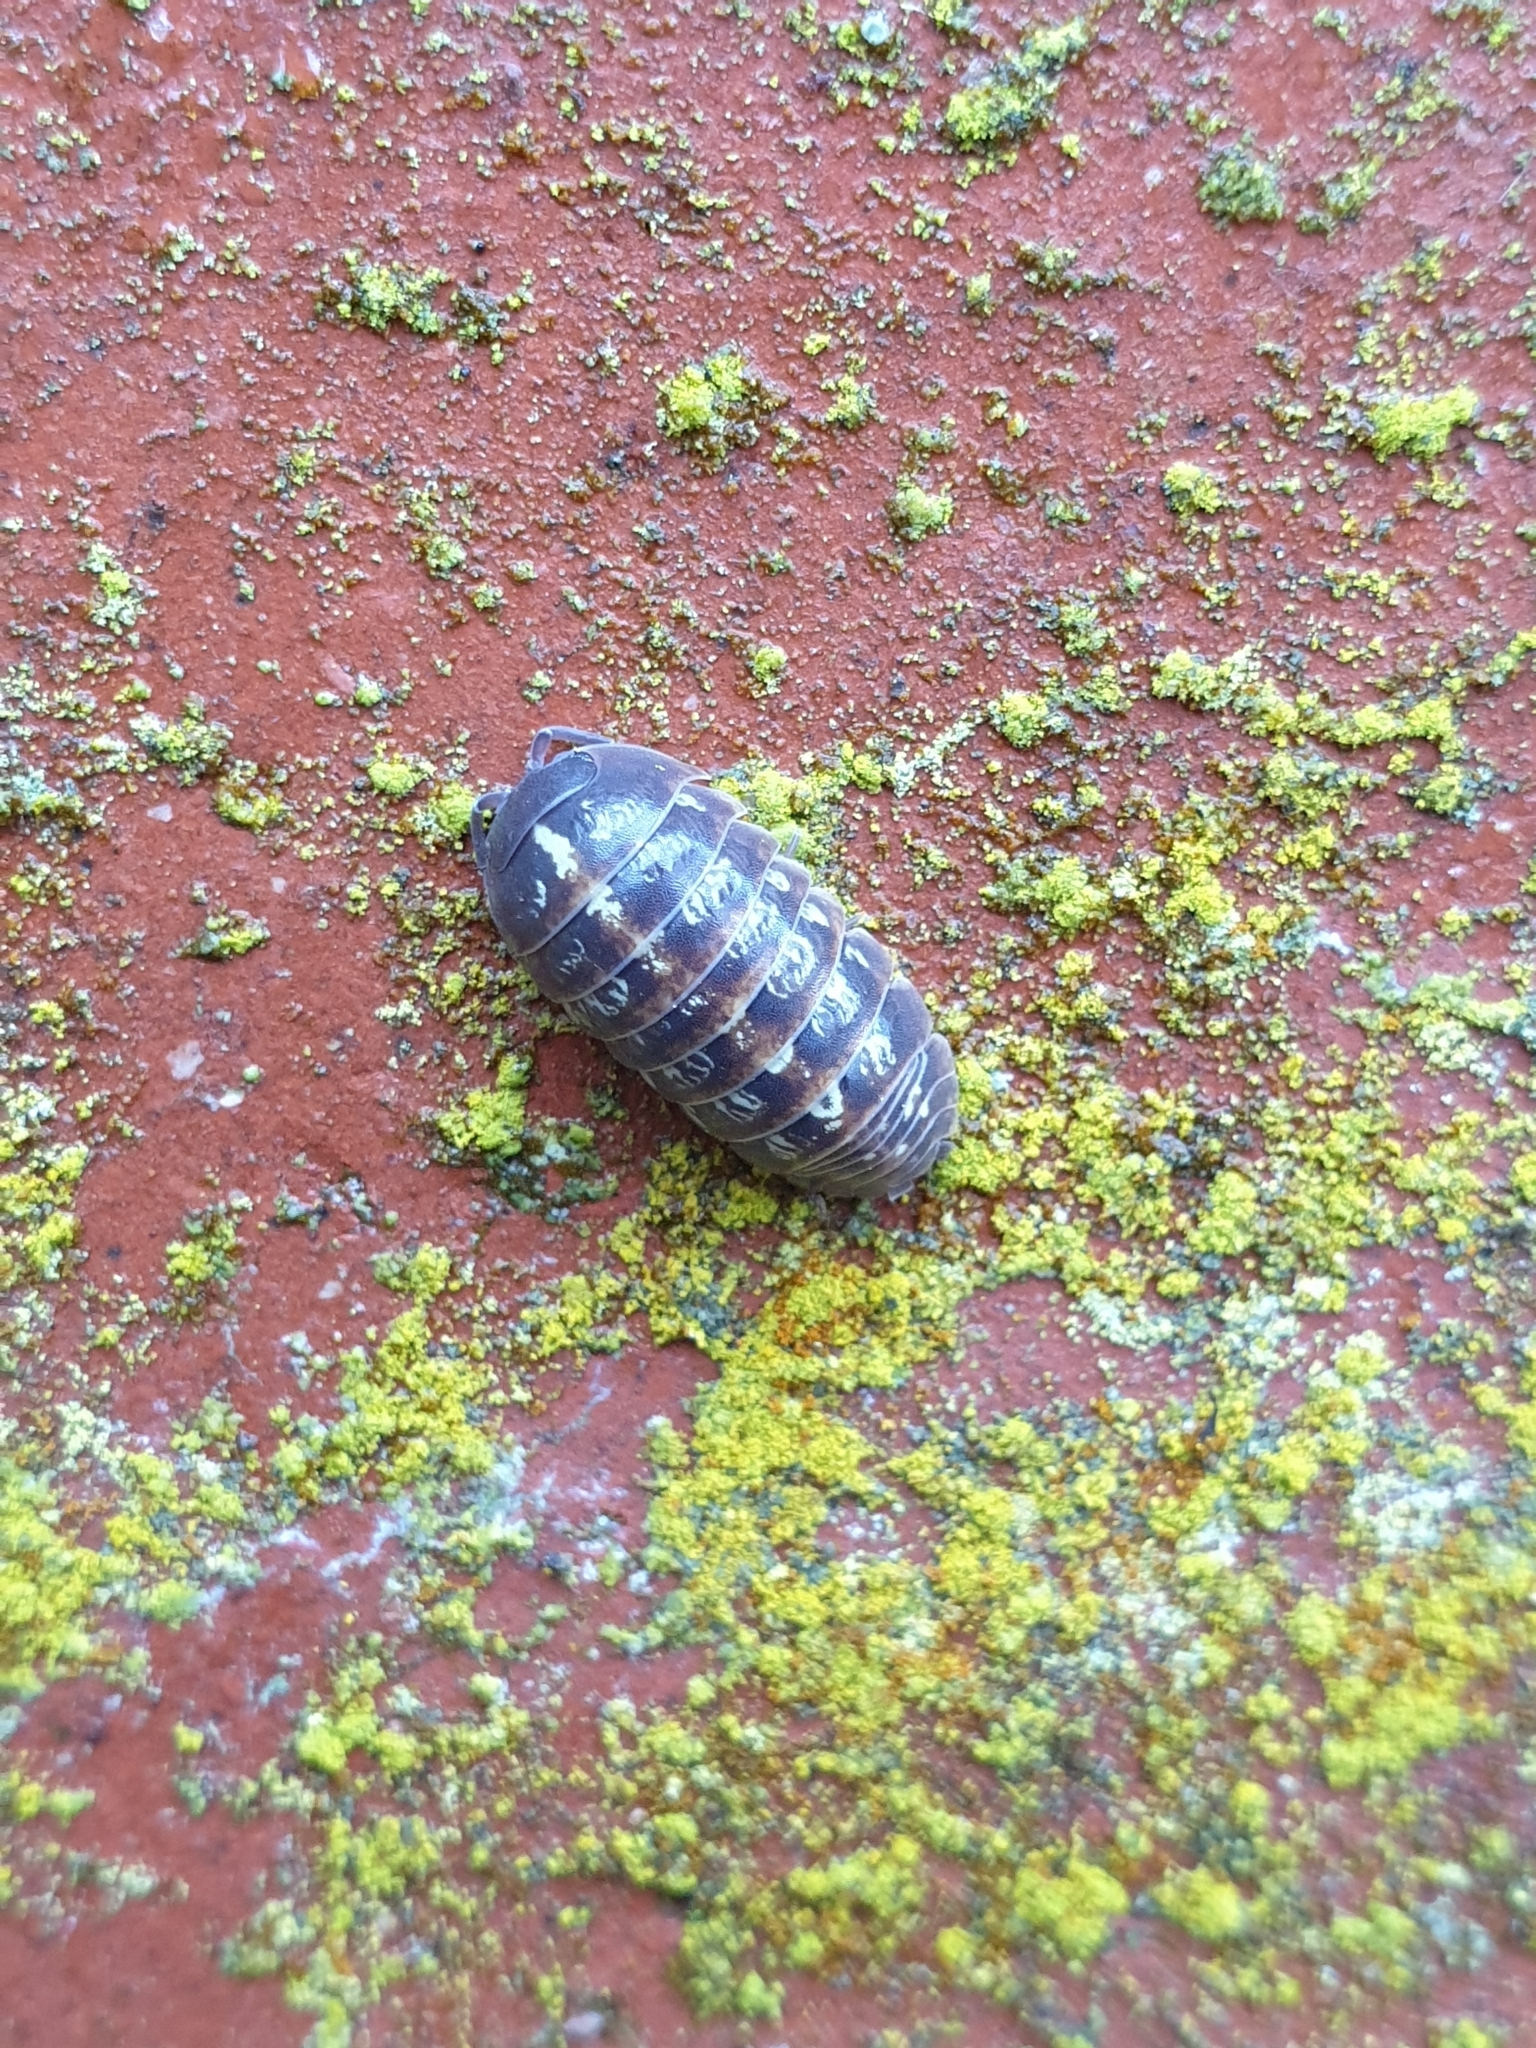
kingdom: Animalia
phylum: Arthropoda
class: Malacostraca
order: Isopoda
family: Armadillidiidae
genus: Armadillidium
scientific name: Armadillidium vulgare
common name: Common pill woodlouse
